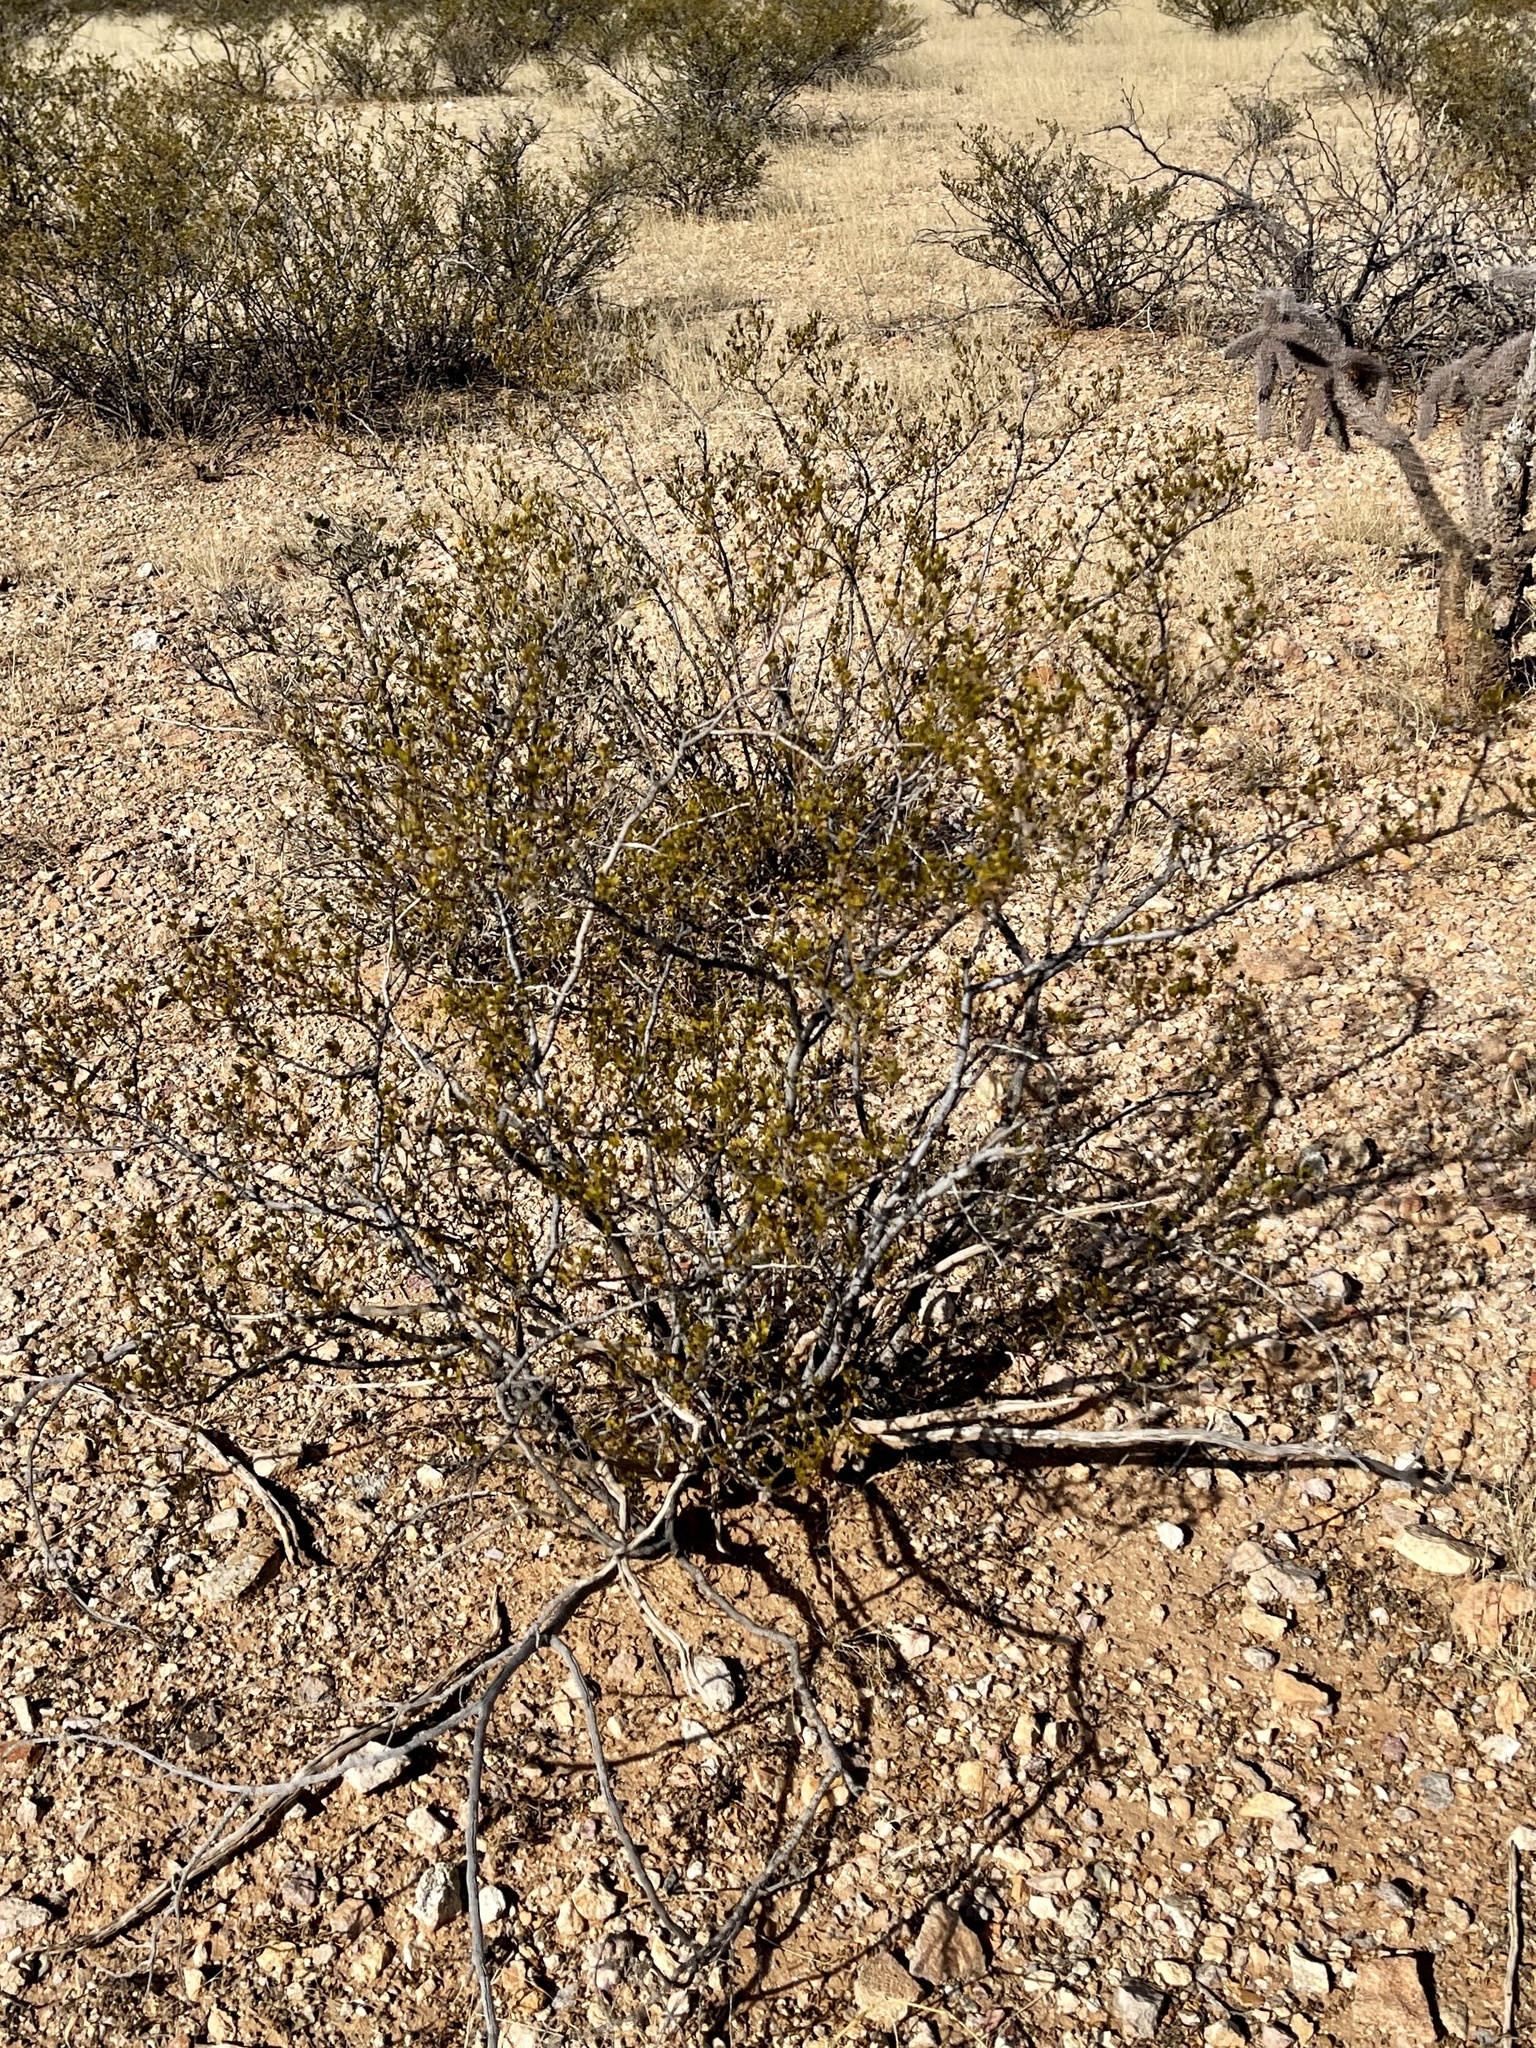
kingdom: Plantae
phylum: Tracheophyta
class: Magnoliopsida
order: Zygophyllales
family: Zygophyllaceae
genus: Larrea
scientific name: Larrea tridentata
